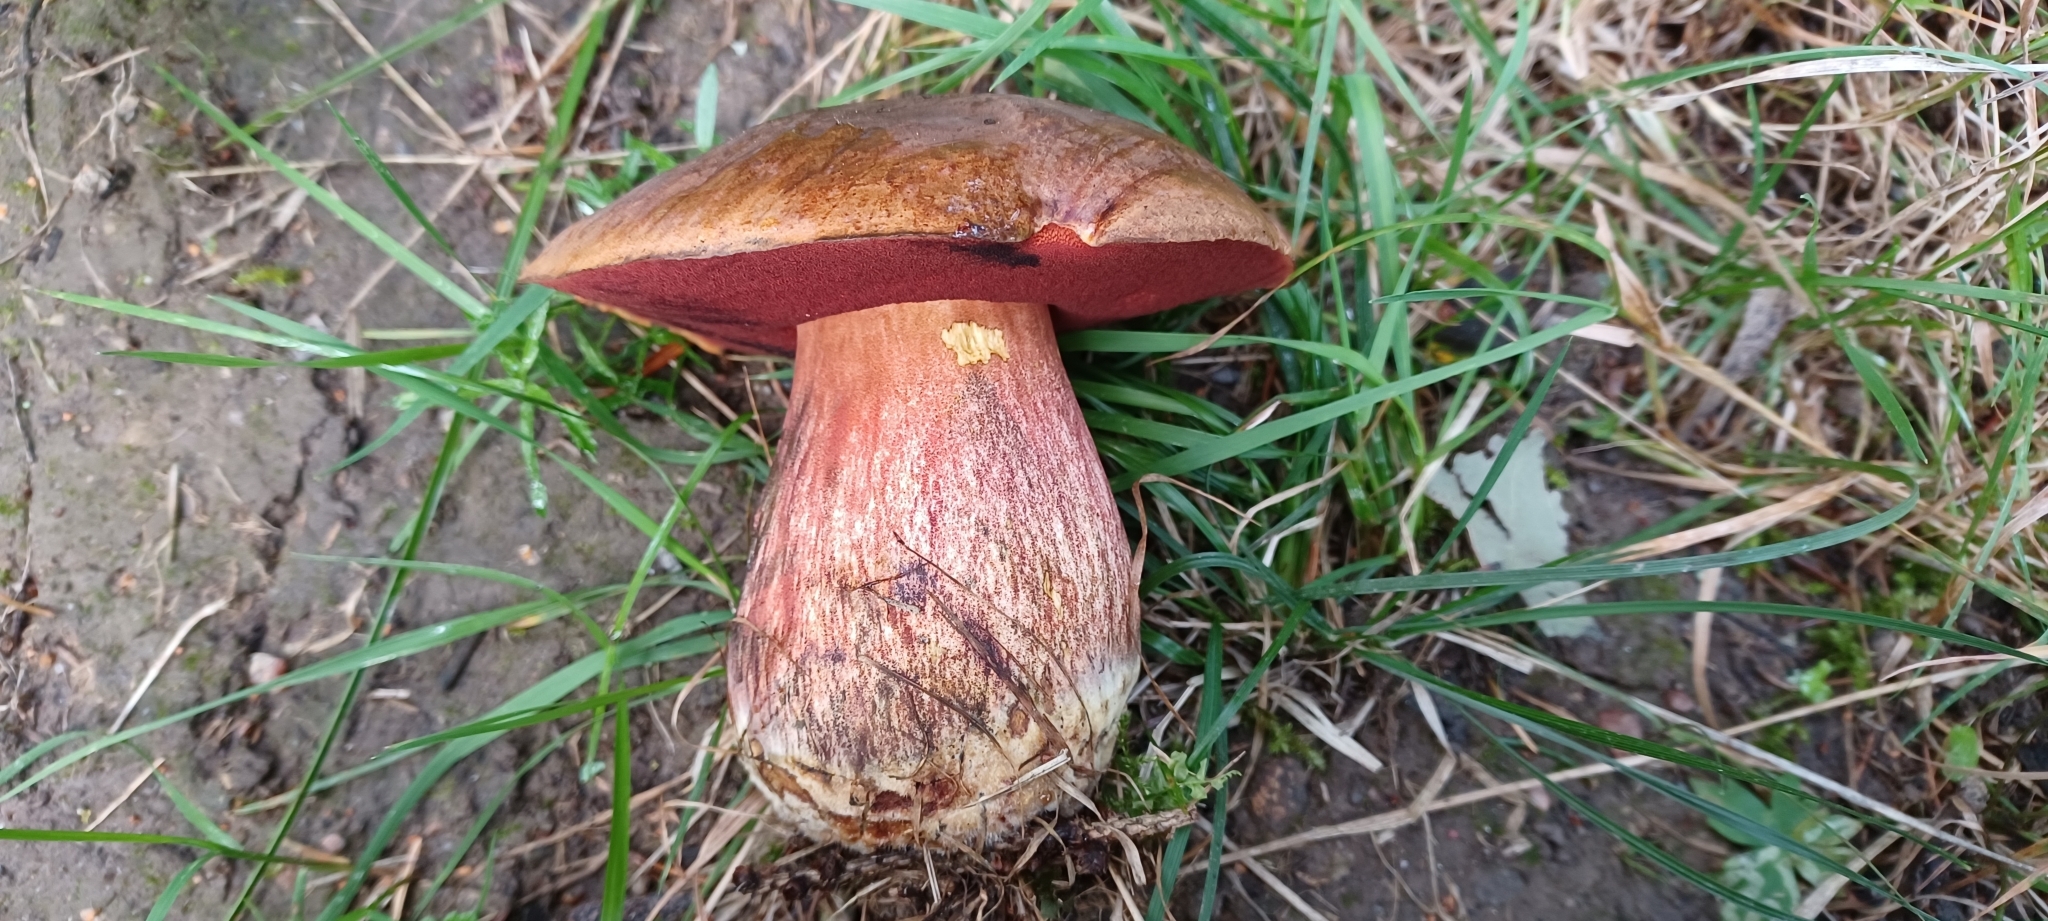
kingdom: Fungi
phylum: Basidiomycota
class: Agaricomycetes
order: Boletales
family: Boletaceae
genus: Neoboletus
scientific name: Neoboletus luridiformis
